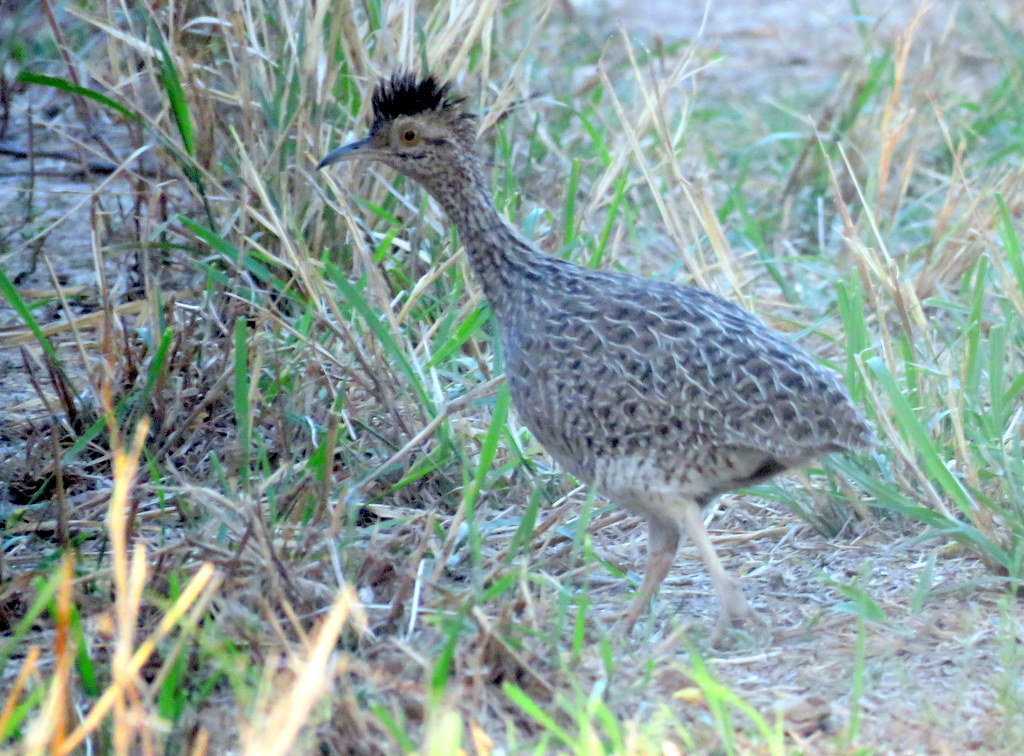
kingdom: Animalia
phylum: Chordata
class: Aves
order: Tinamiformes
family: Tinamidae
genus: Nothoprocta
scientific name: Nothoprocta cinerascens
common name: Brushland tinamou
